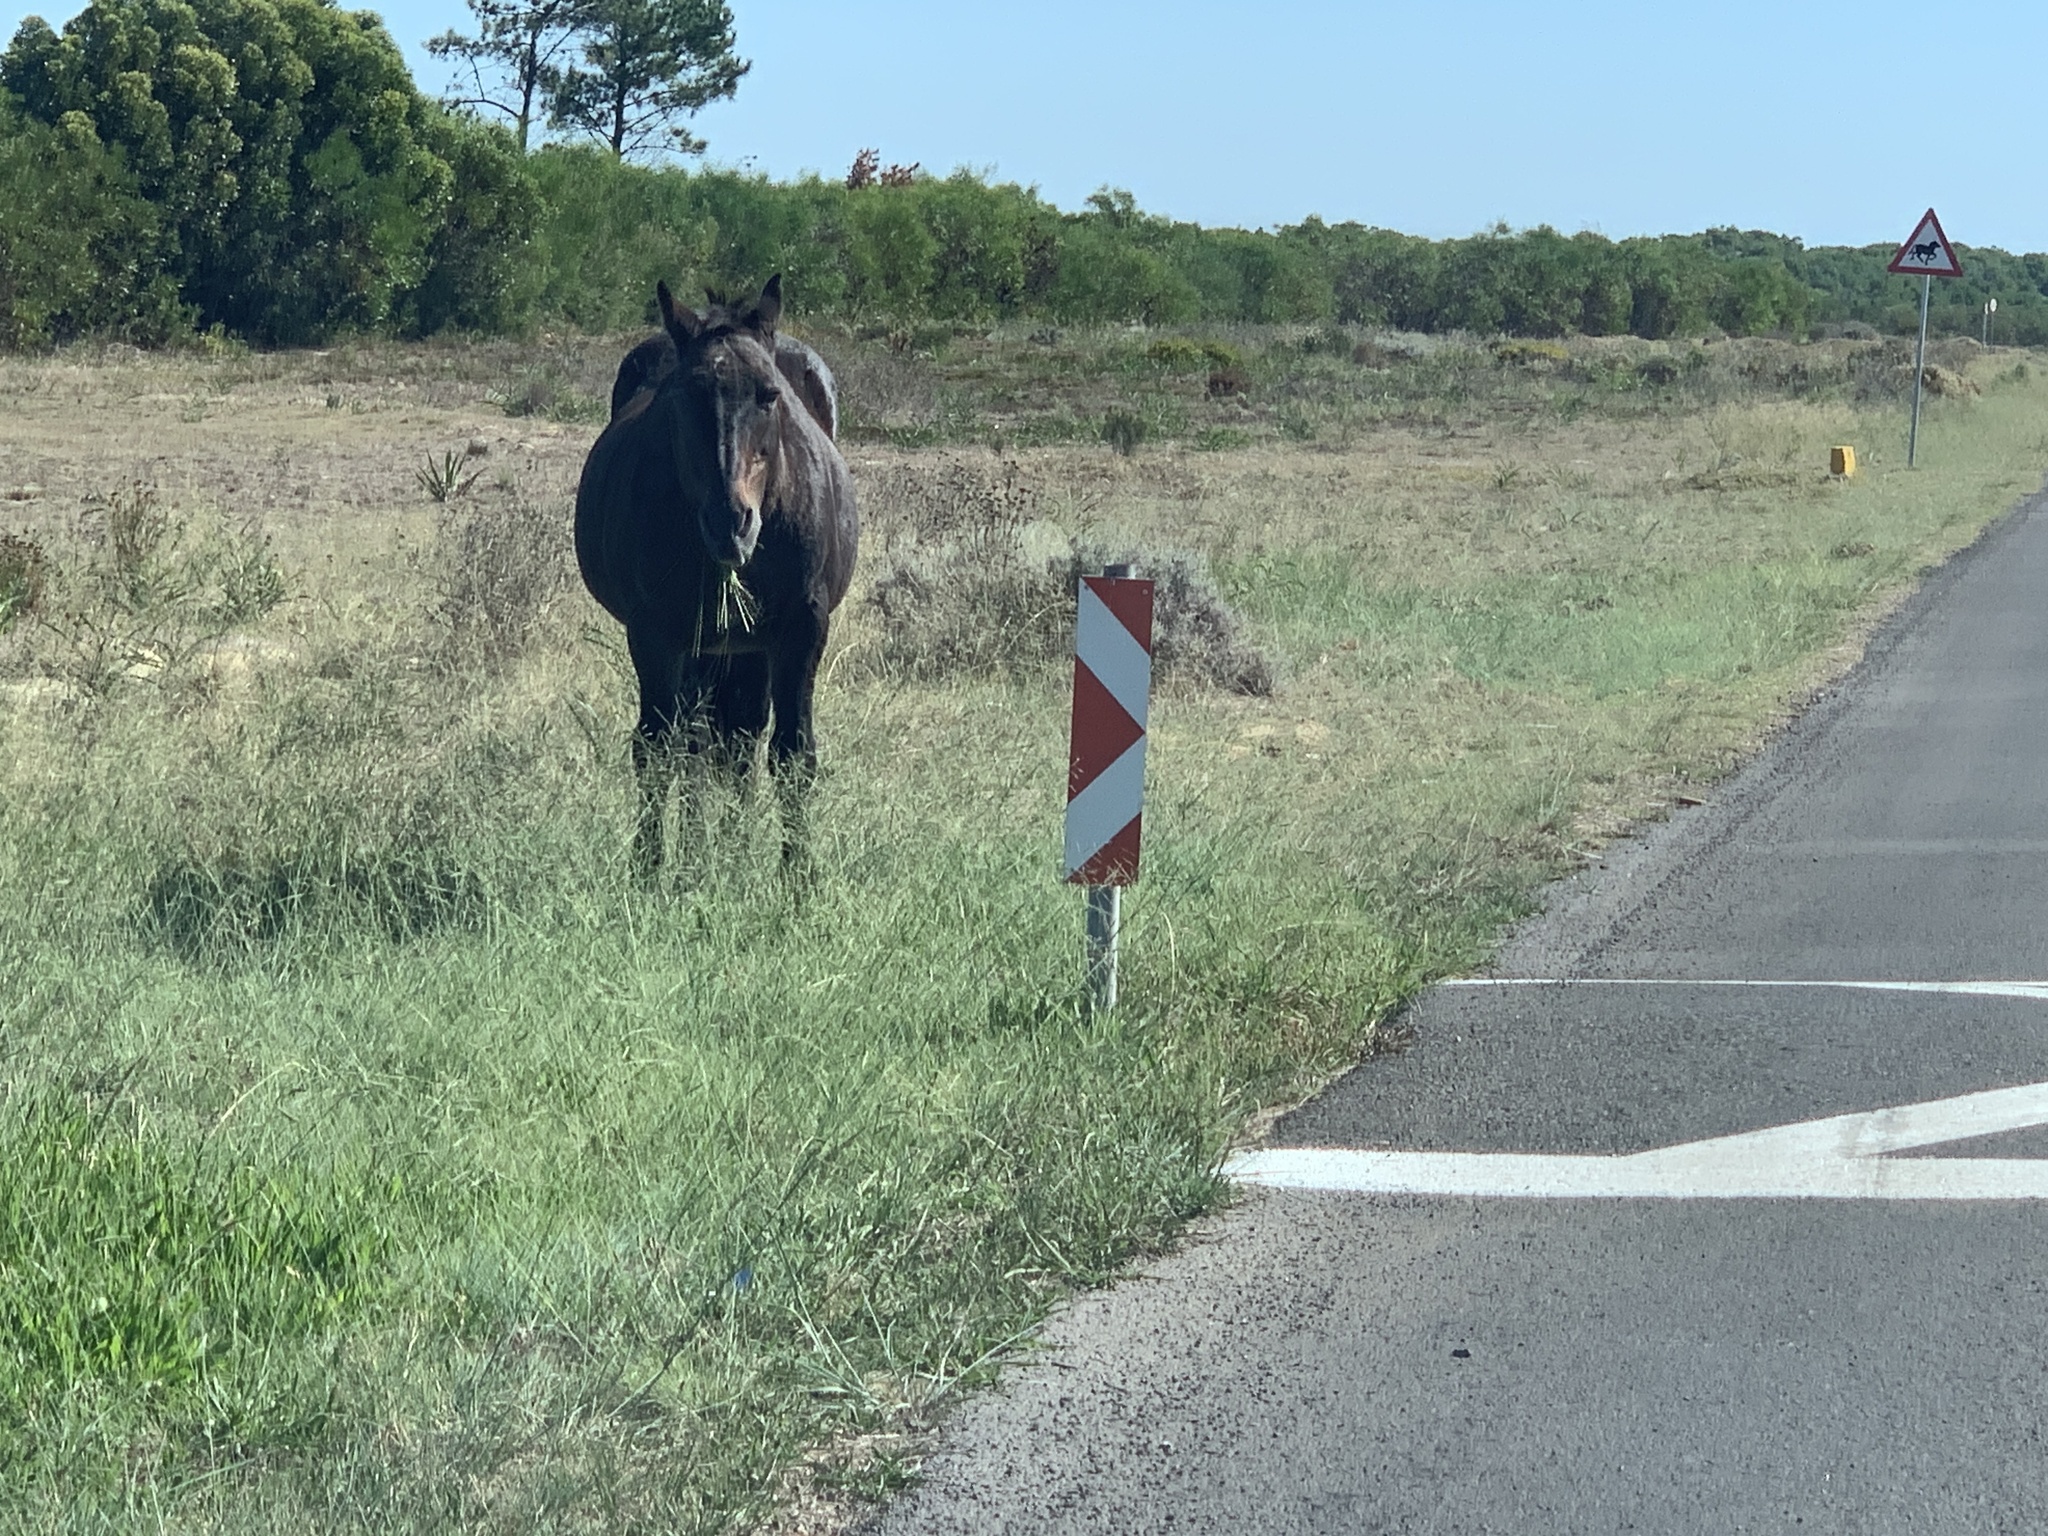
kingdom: Animalia
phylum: Chordata
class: Mammalia
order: Perissodactyla
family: Equidae
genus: Equus
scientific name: Equus caballus
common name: Horse
